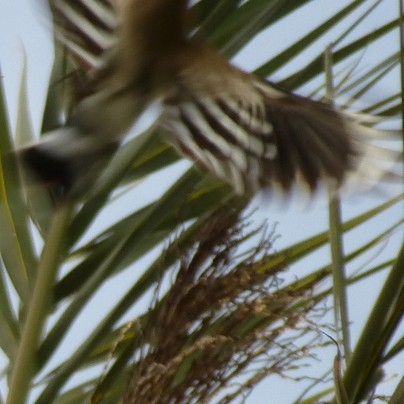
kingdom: Animalia
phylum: Chordata
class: Aves
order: Bucerotiformes
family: Upupidae
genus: Upupa
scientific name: Upupa epops
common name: Eurasian hoopoe
